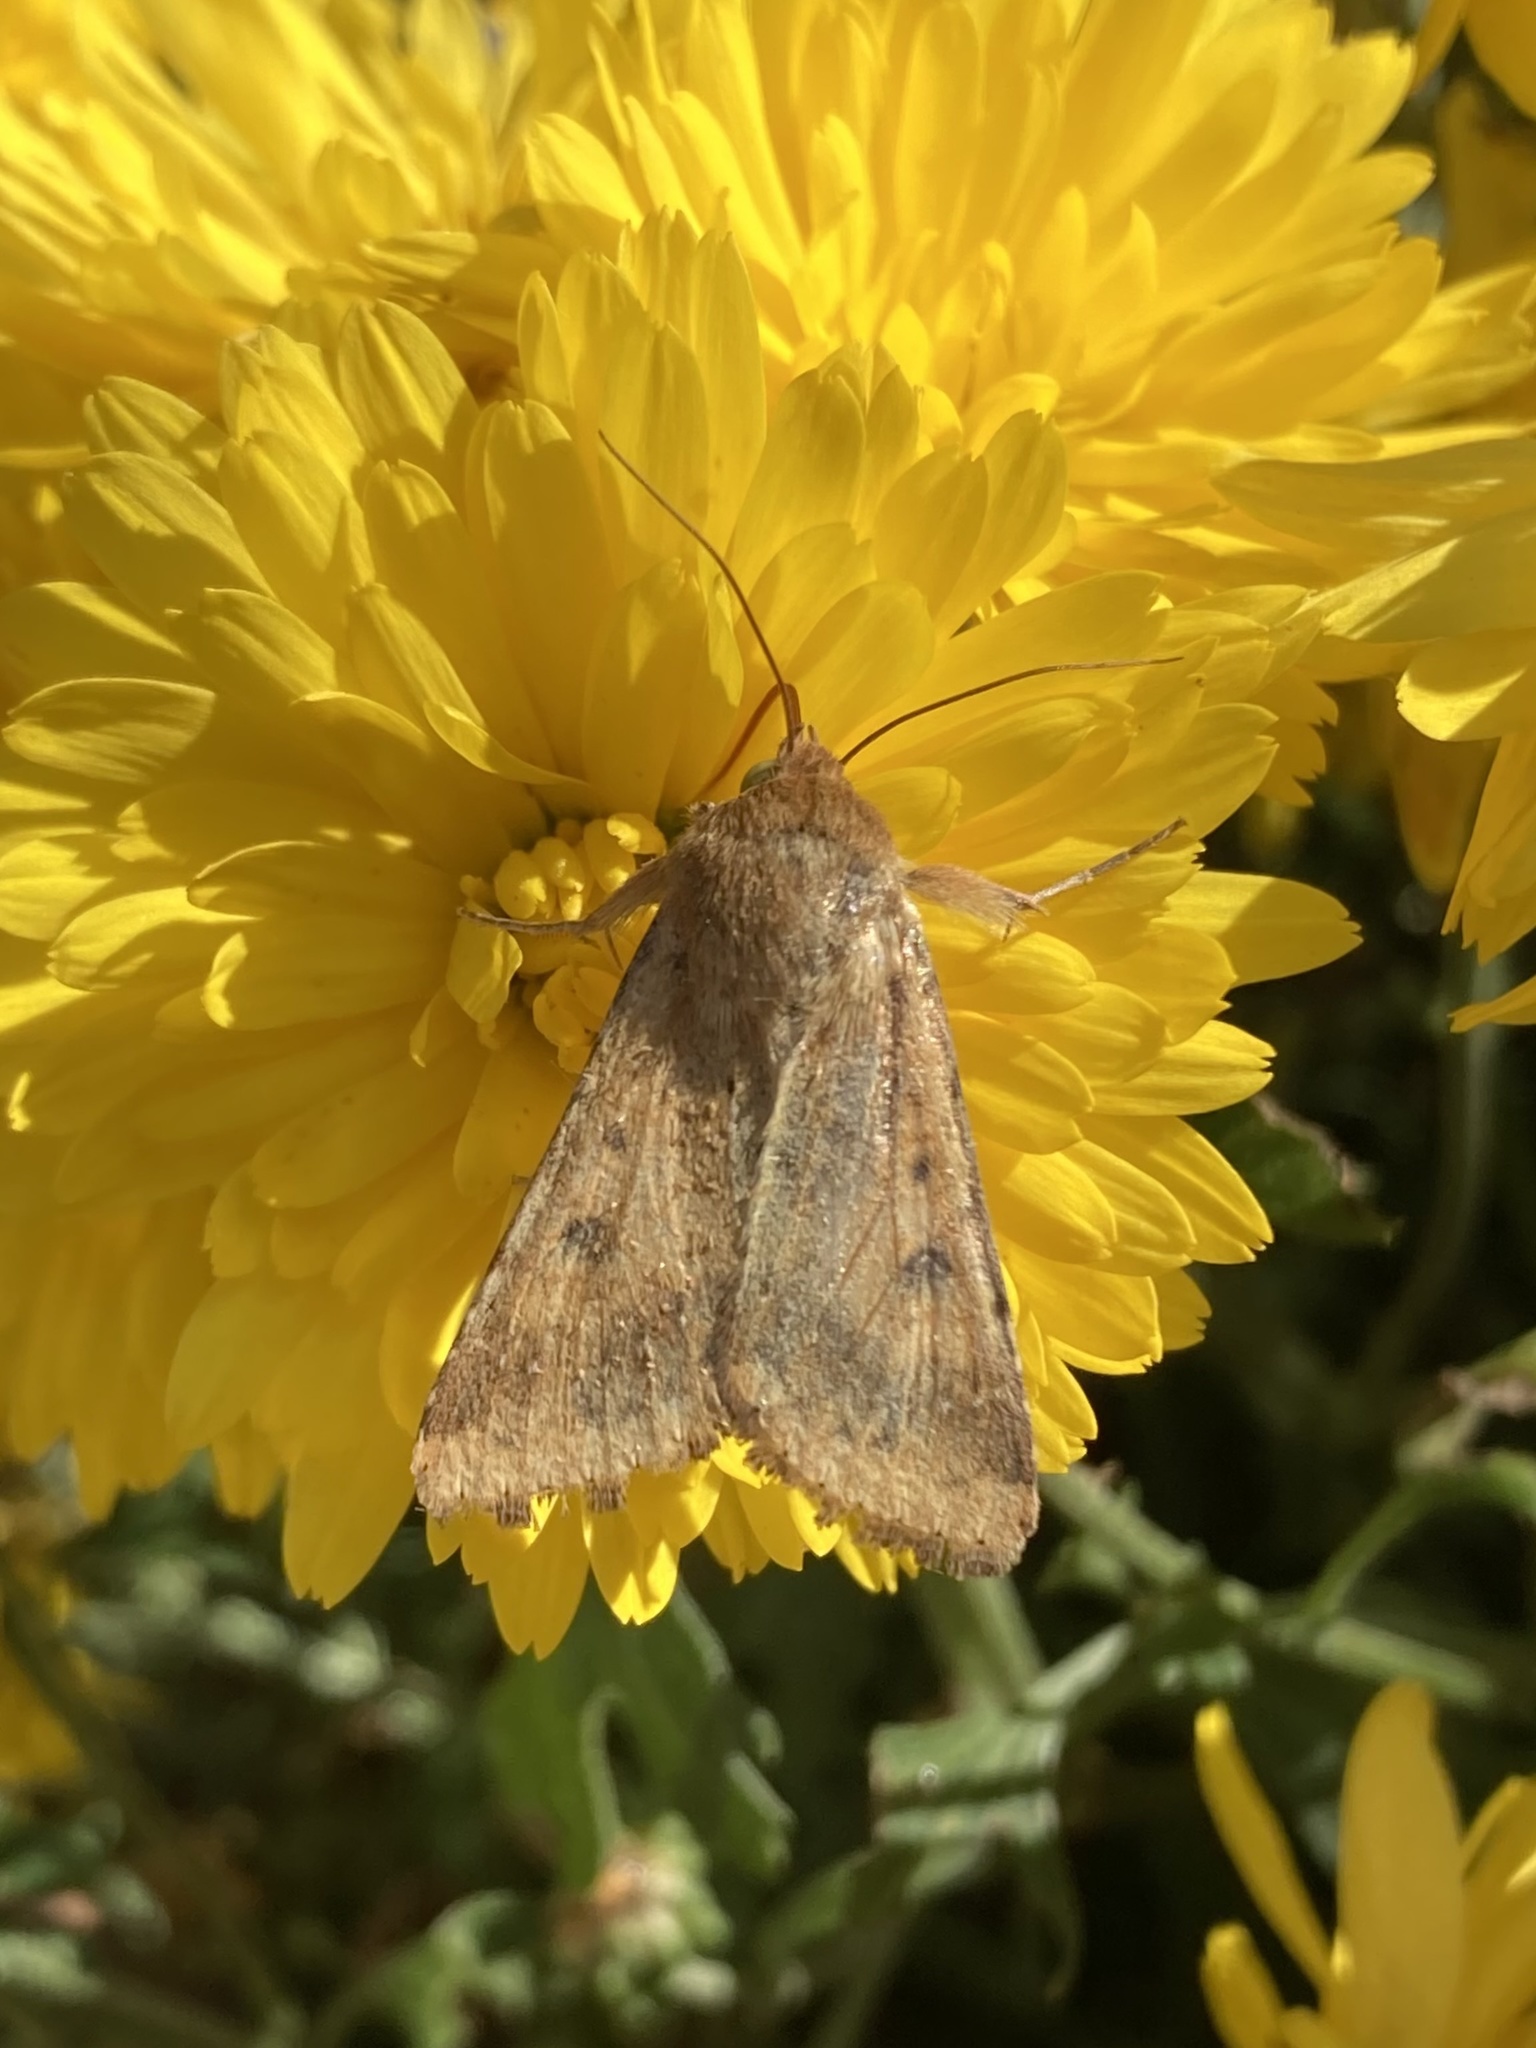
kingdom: Animalia
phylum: Arthropoda
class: Insecta
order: Lepidoptera
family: Noctuidae
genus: Helicoverpa
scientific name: Helicoverpa zea
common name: Bollworm
